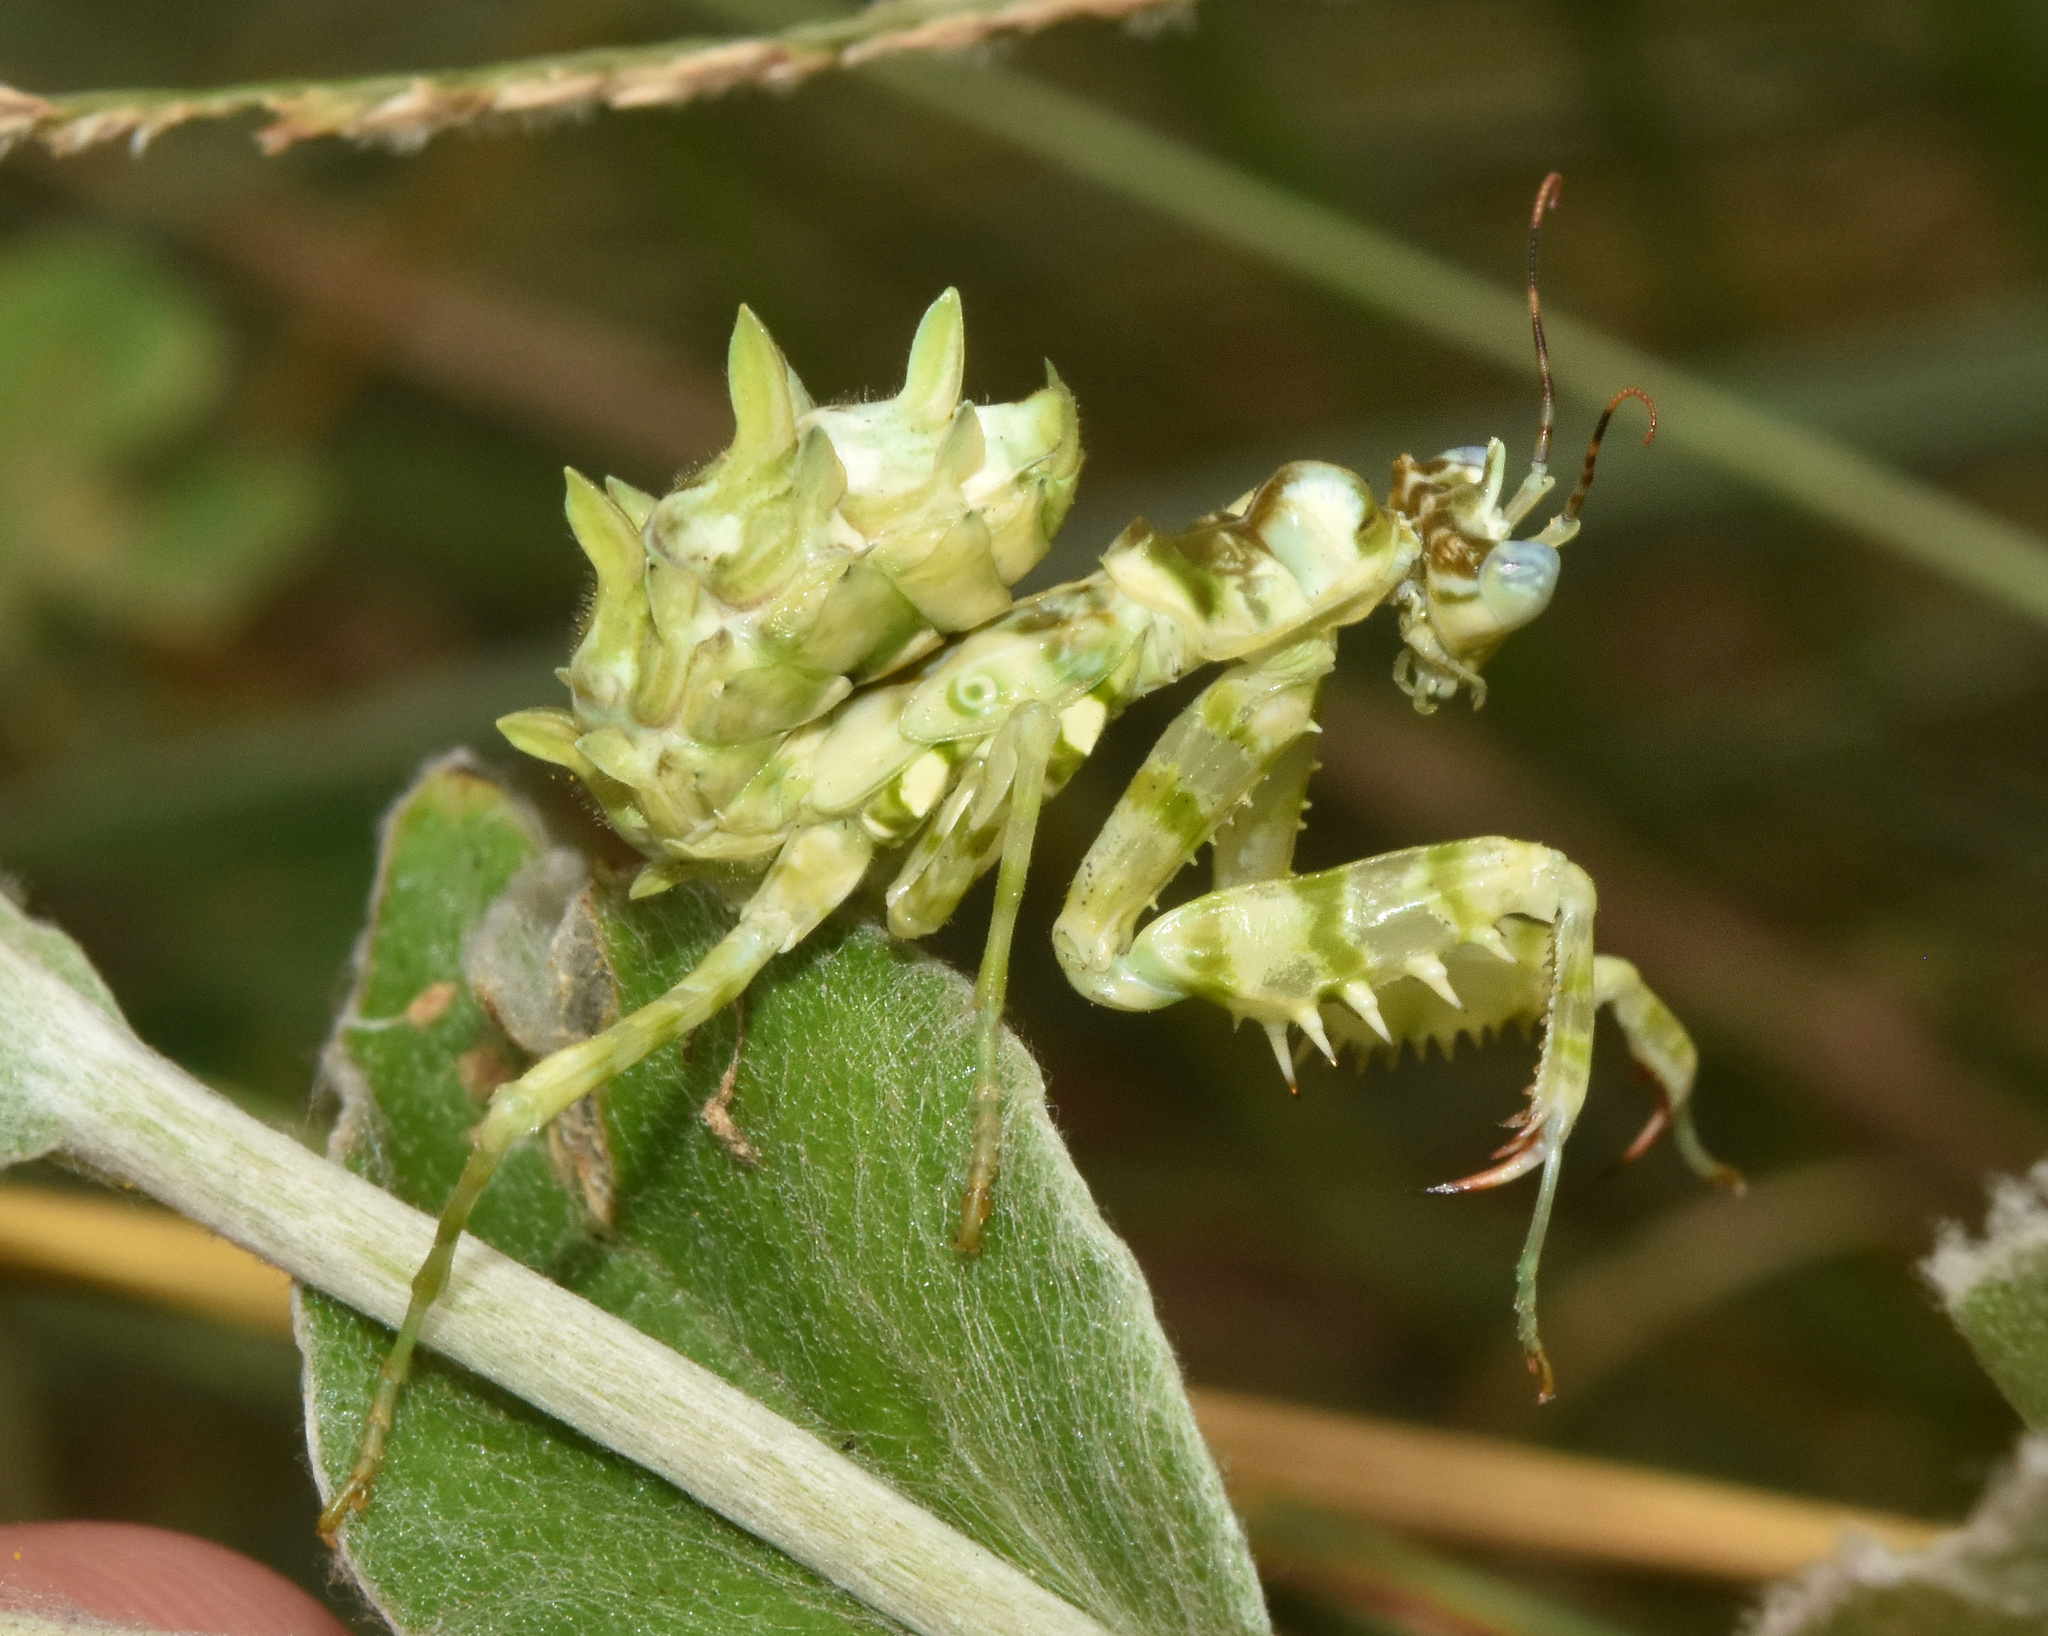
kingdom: Animalia
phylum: Arthropoda
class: Insecta
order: Mantodea
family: Hymenopodidae
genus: Pseudocreobotra
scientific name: Pseudocreobotra wahlbergi
